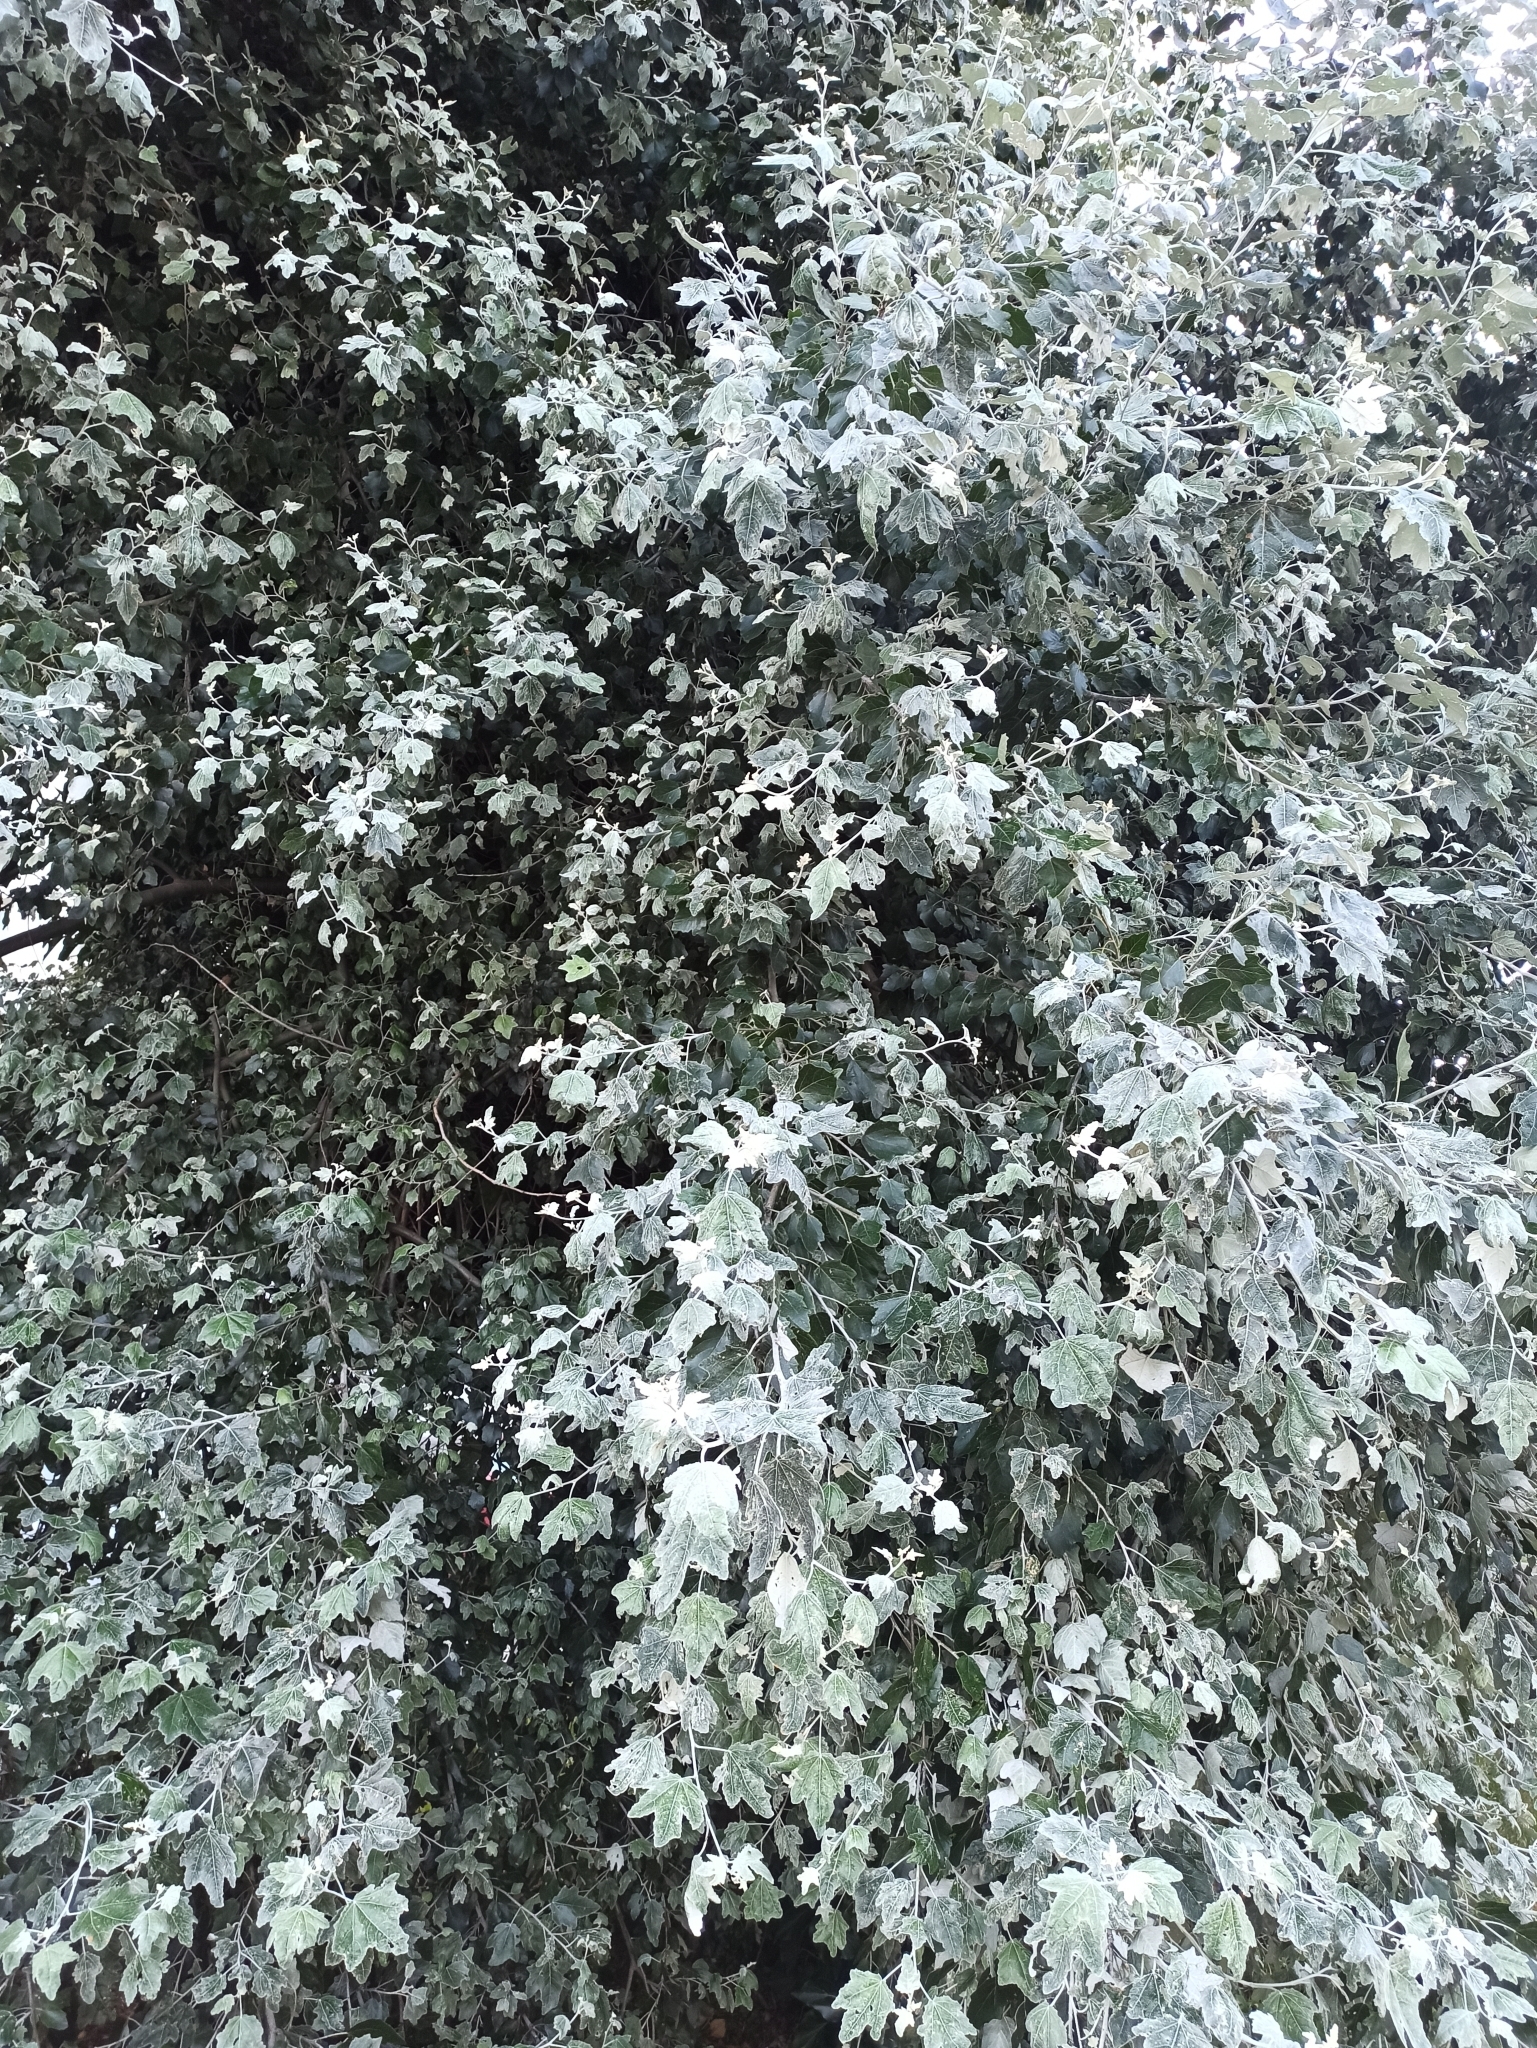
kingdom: Plantae
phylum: Tracheophyta
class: Magnoliopsida
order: Malpighiales
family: Salicaceae
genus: Populus
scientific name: Populus alba
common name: White poplar
